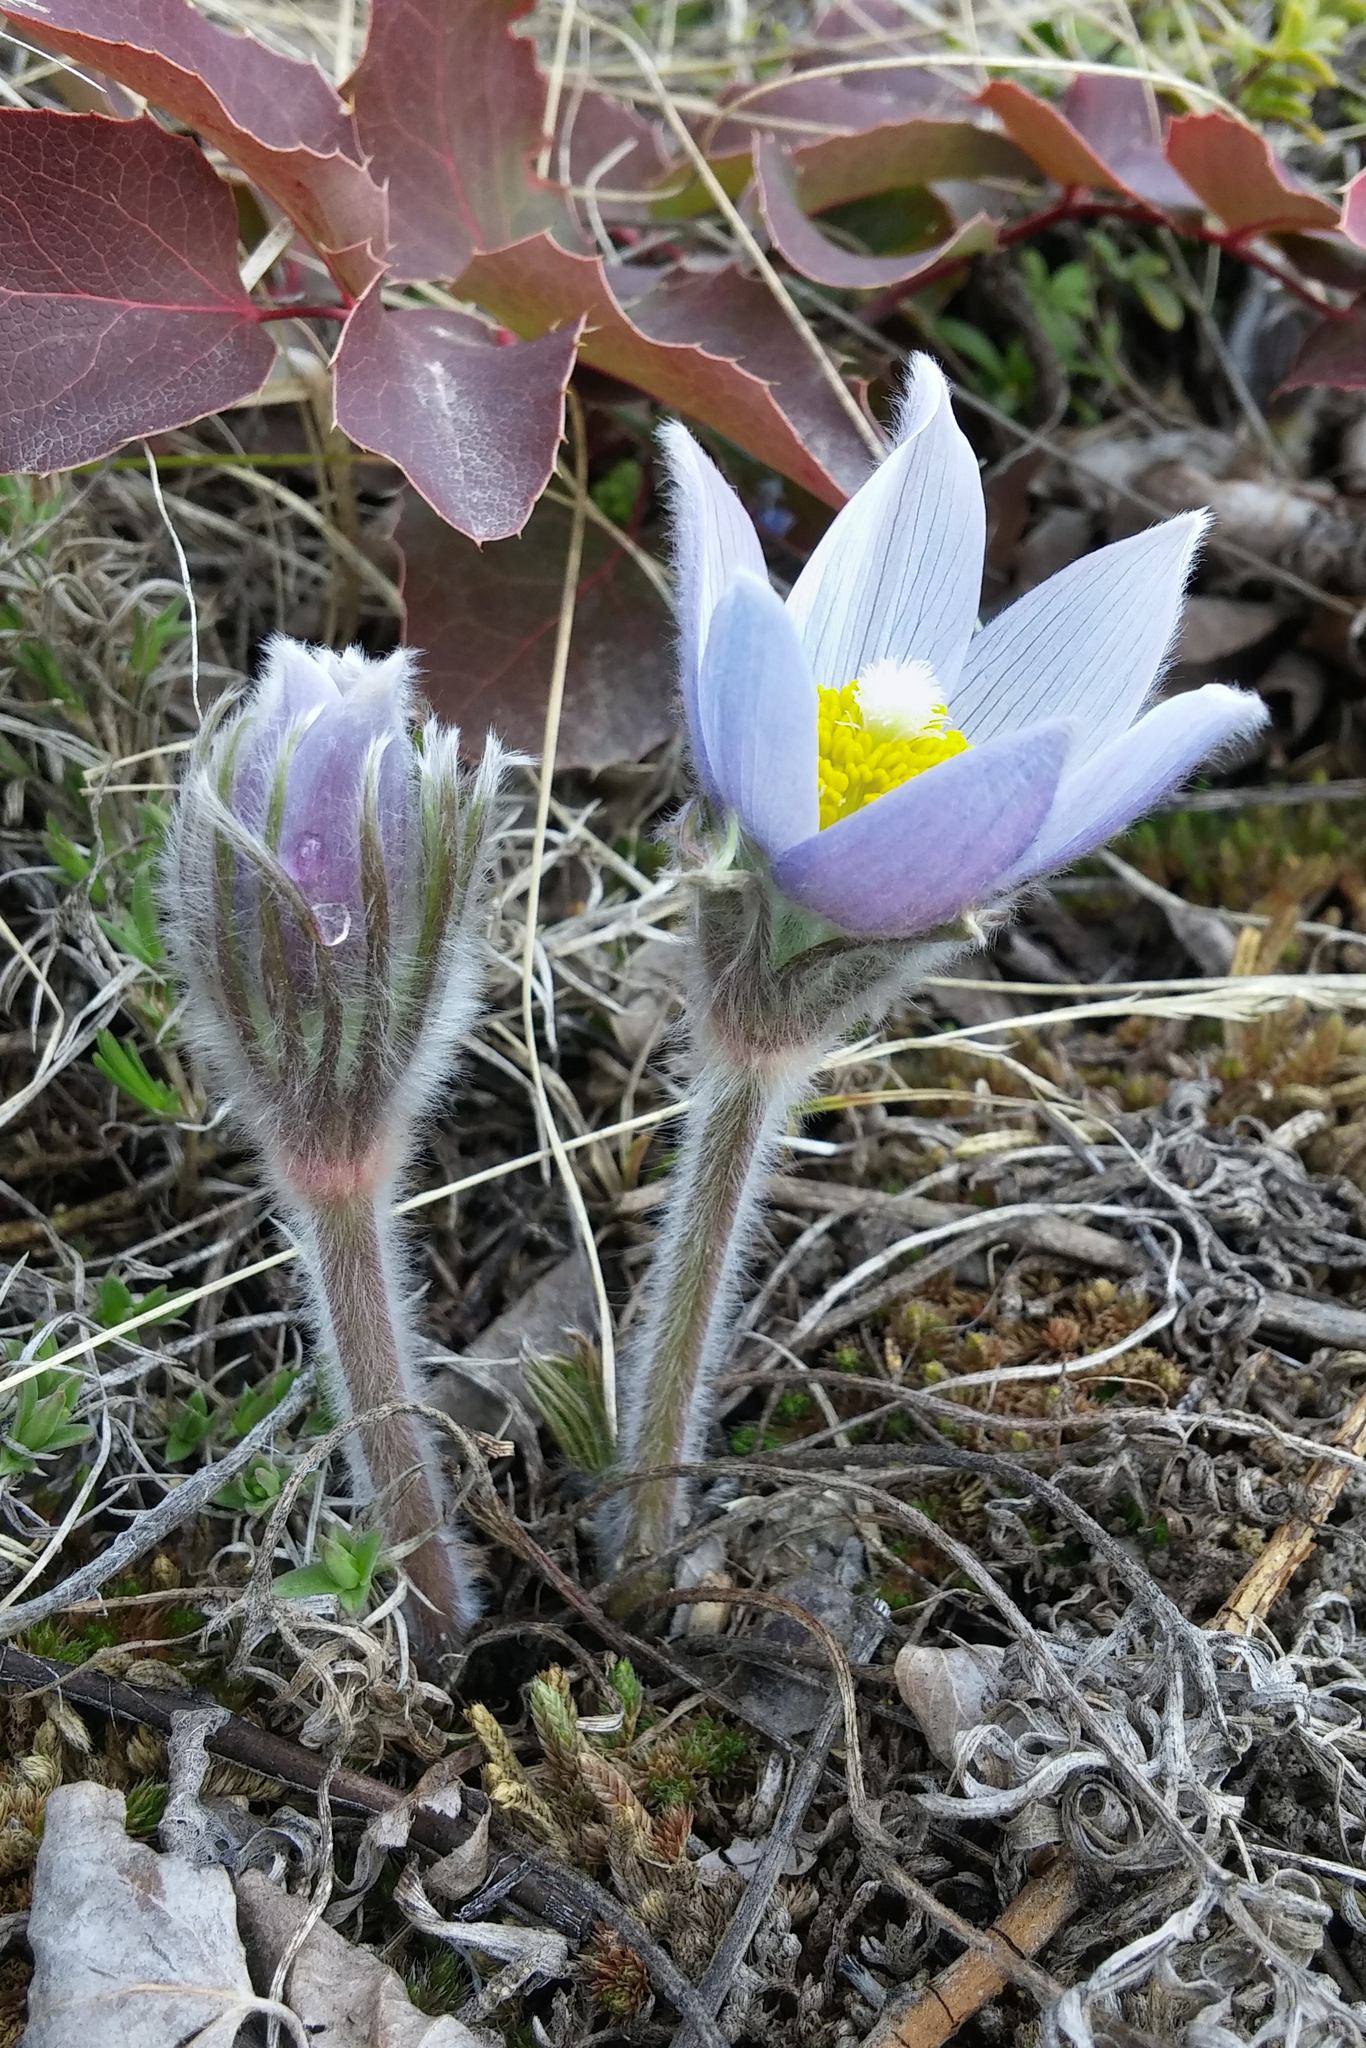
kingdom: Plantae
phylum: Tracheophyta
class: Magnoliopsida
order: Ranunculales
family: Ranunculaceae
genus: Pulsatilla
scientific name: Pulsatilla nuttalliana
